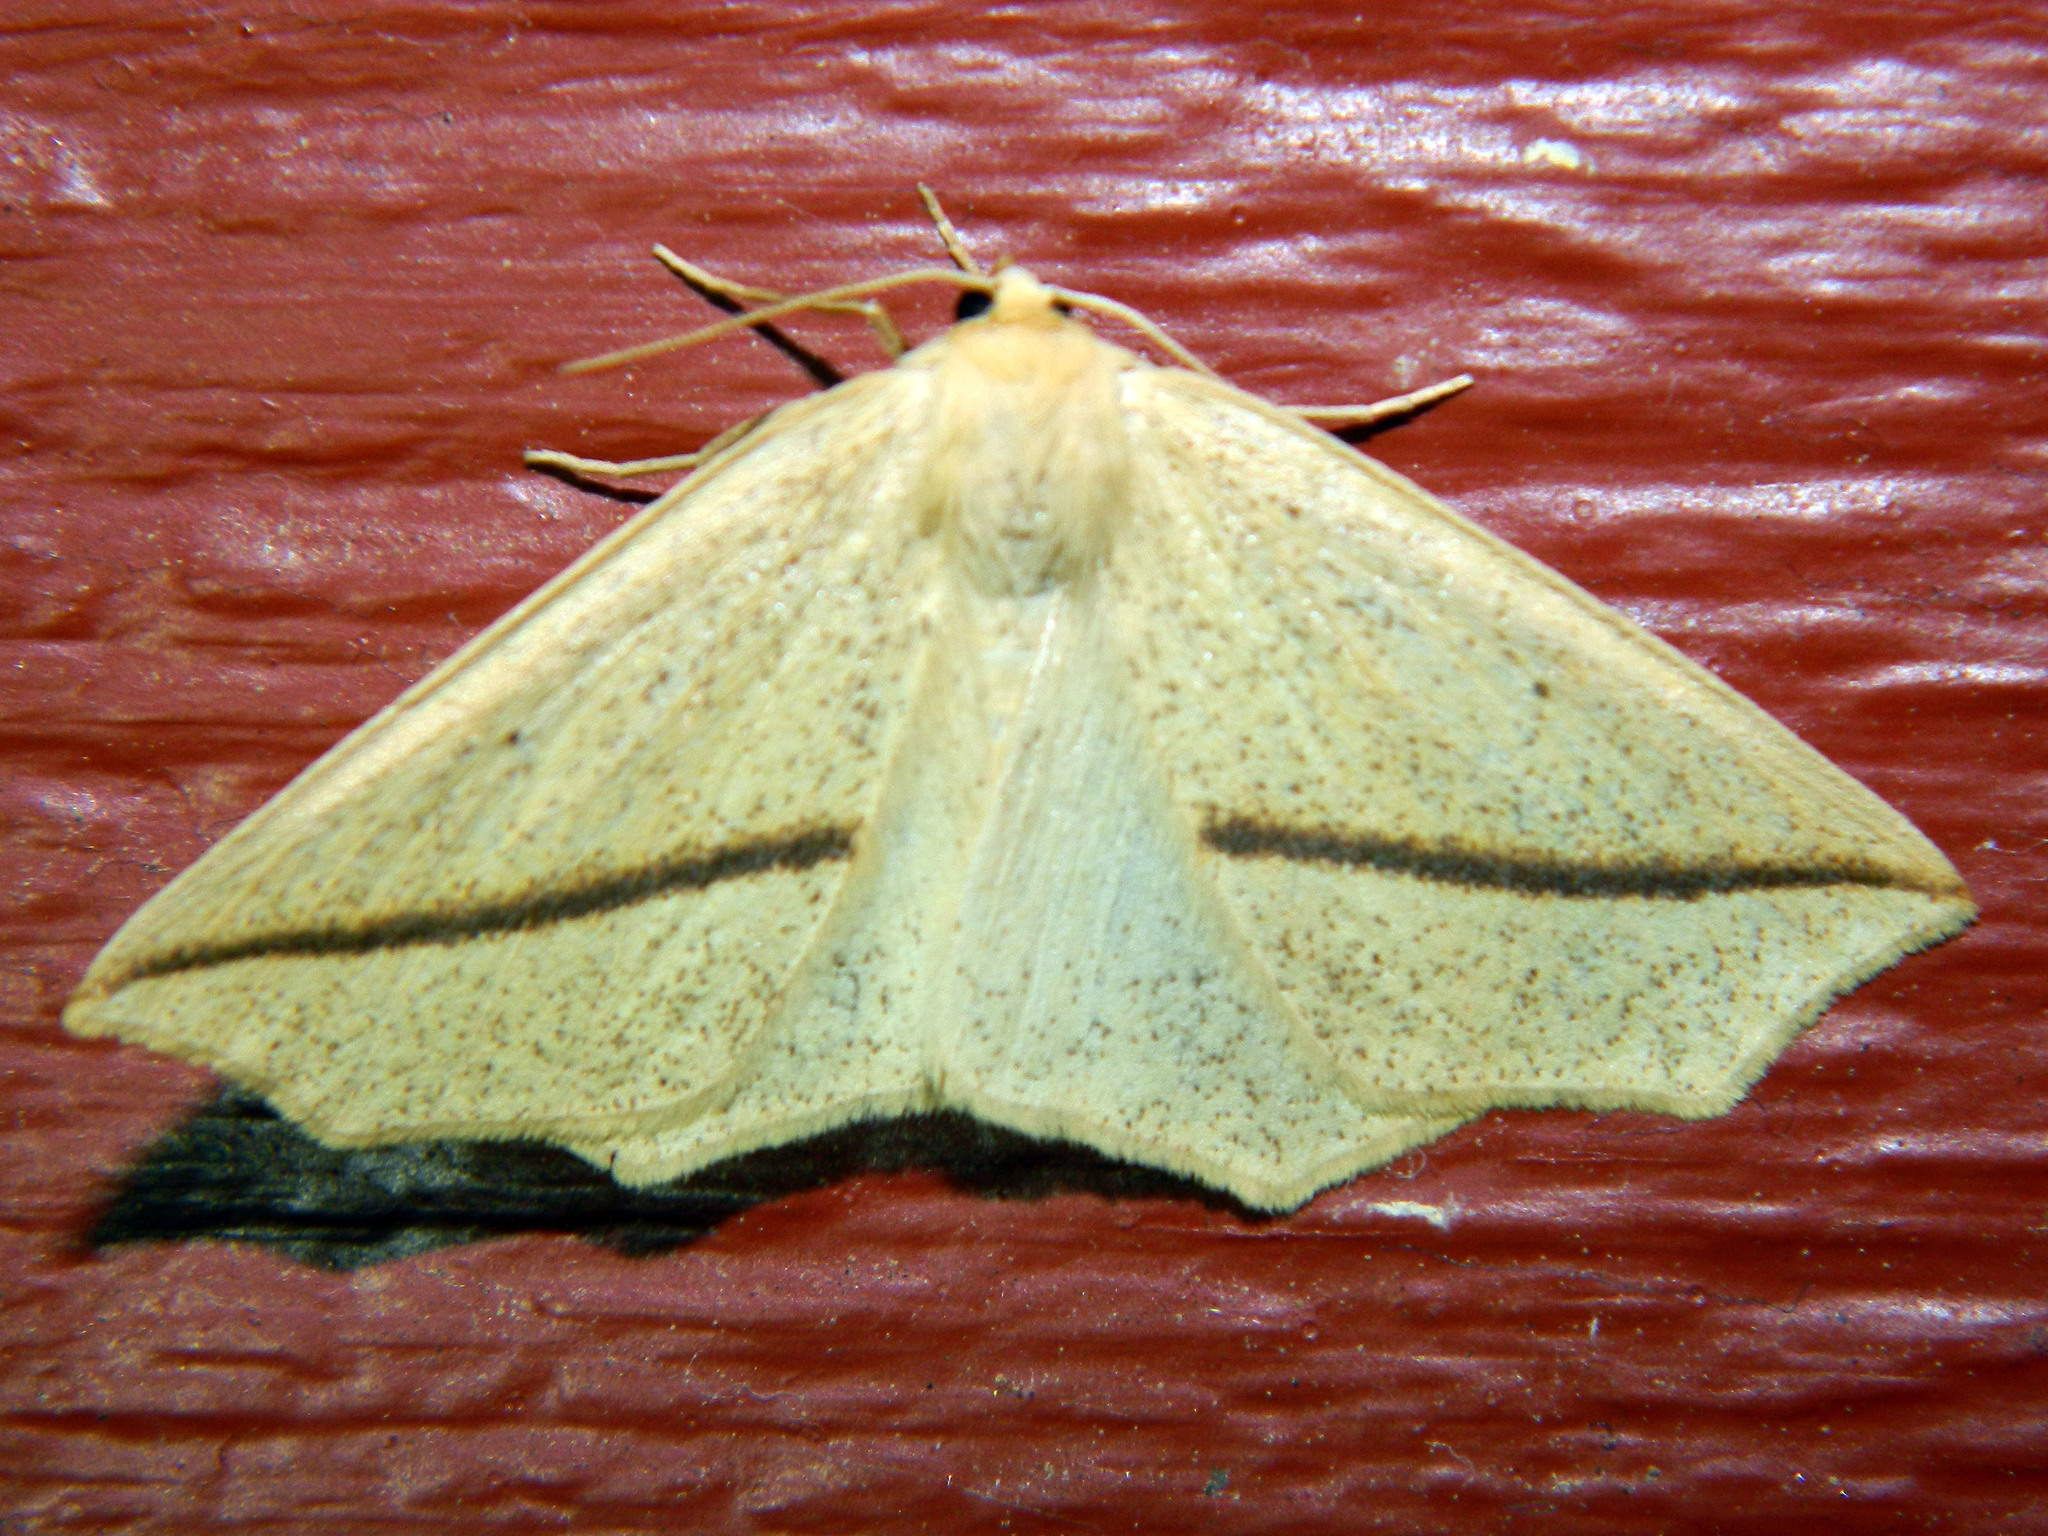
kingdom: Animalia
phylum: Arthropoda
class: Insecta
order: Lepidoptera
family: Geometridae
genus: Tetracis
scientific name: Tetracis crocallata
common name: Yellow slant-line
